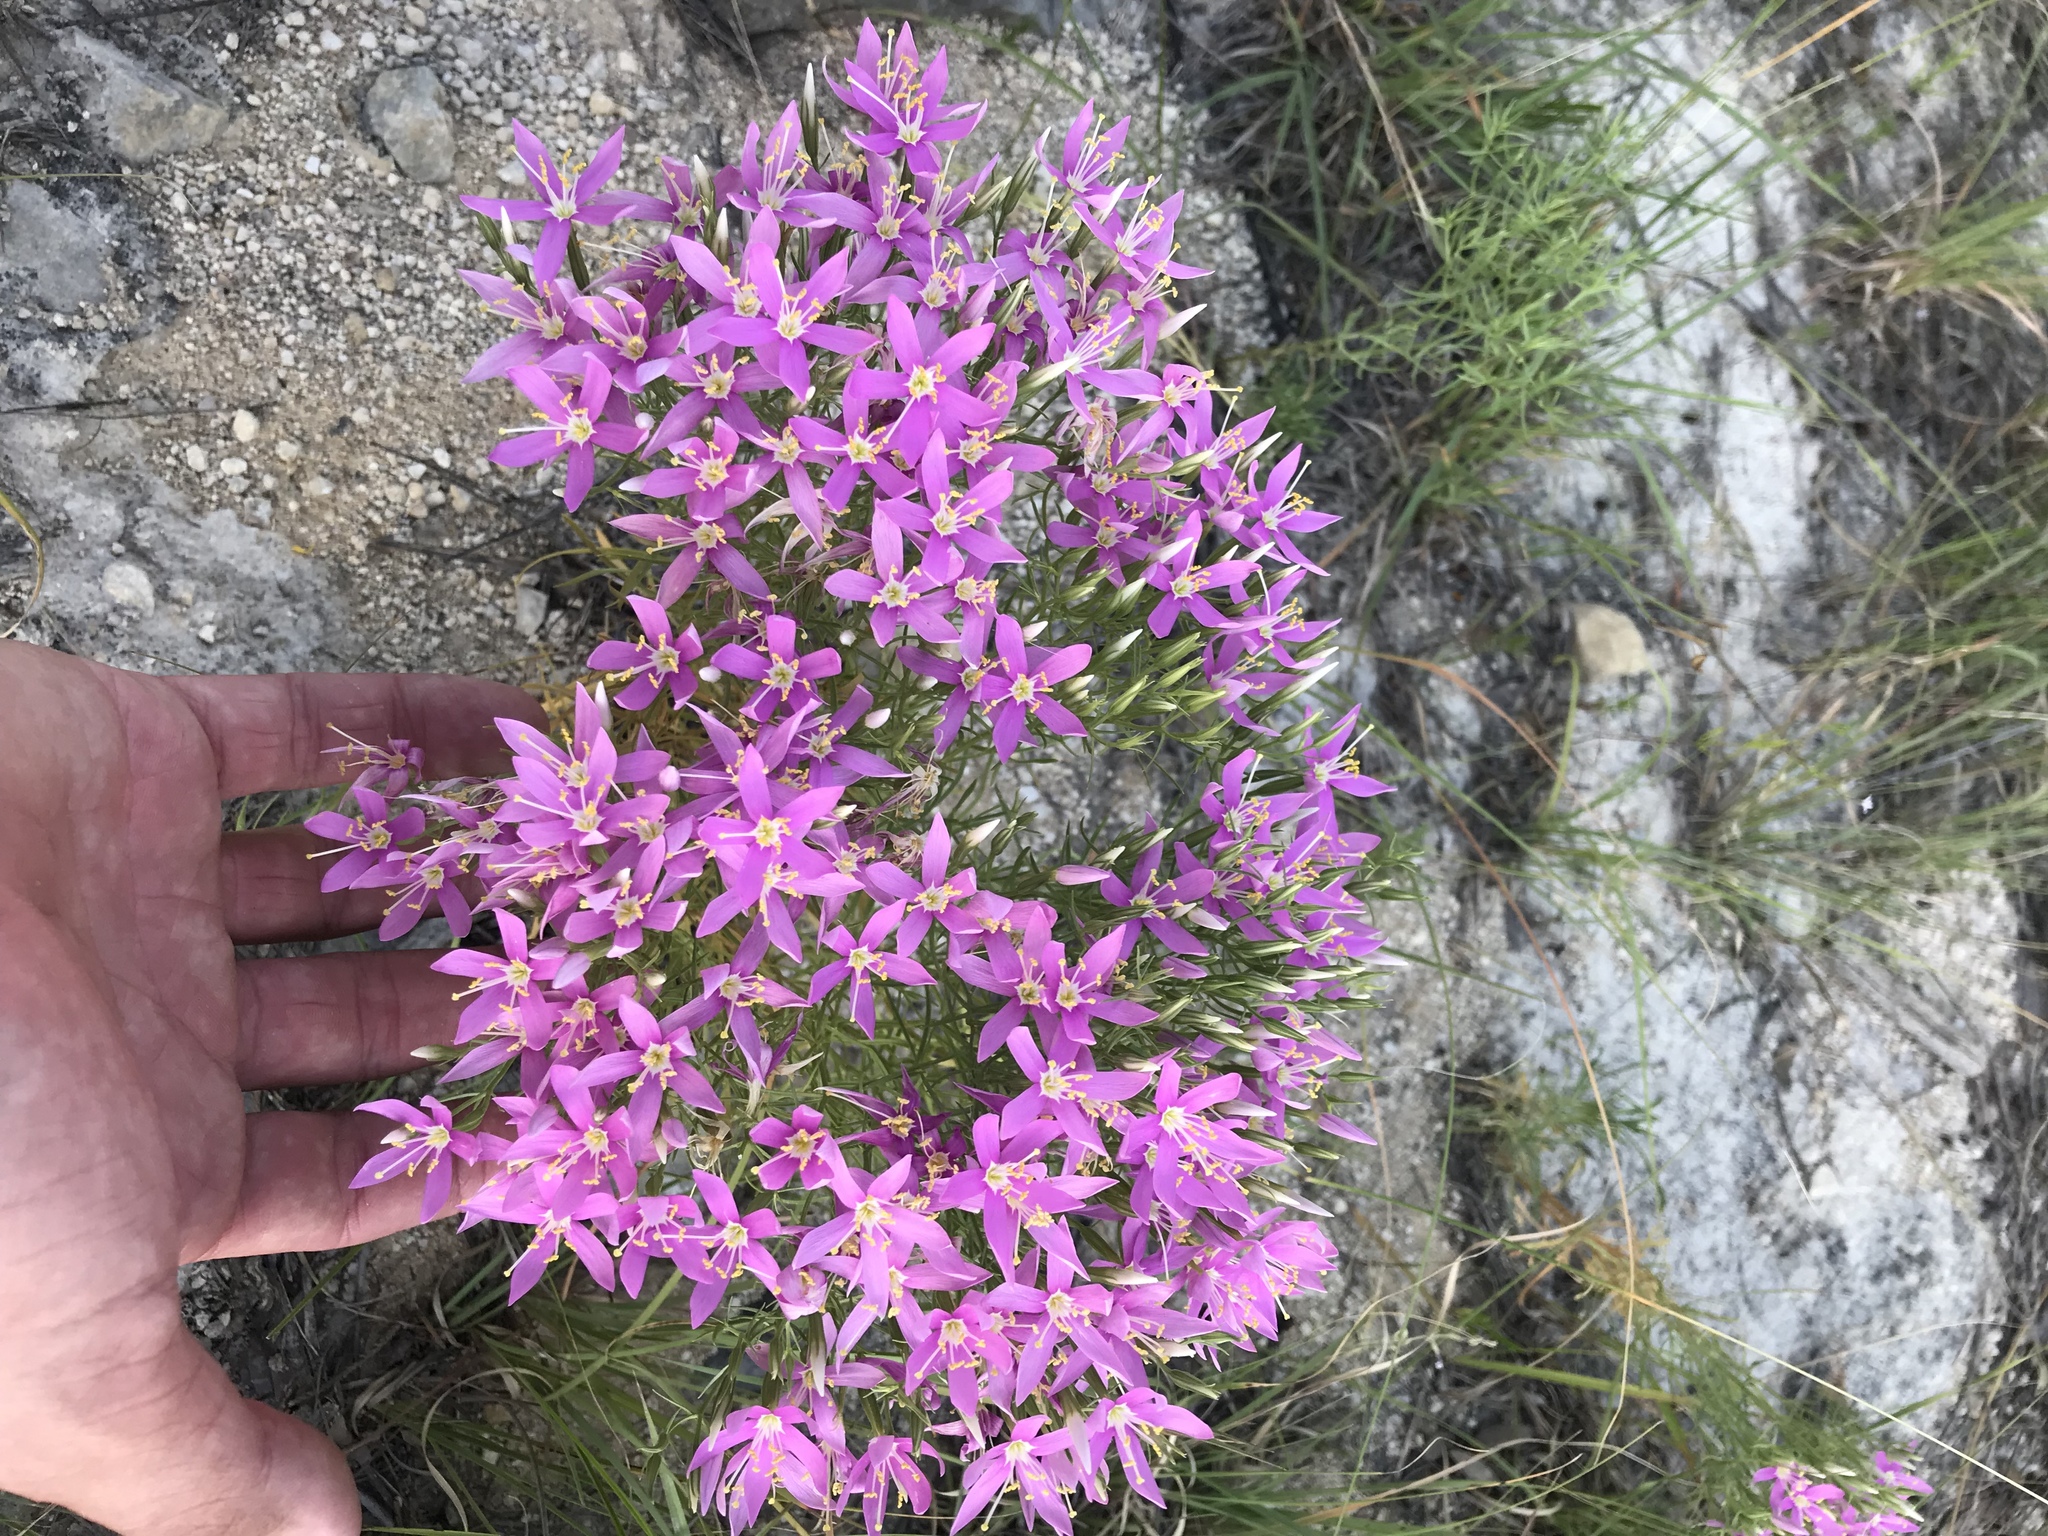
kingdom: Plantae
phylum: Tracheophyta
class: Magnoliopsida
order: Gentianales
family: Gentianaceae
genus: Zeltnera
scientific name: Zeltnera beyrichii
